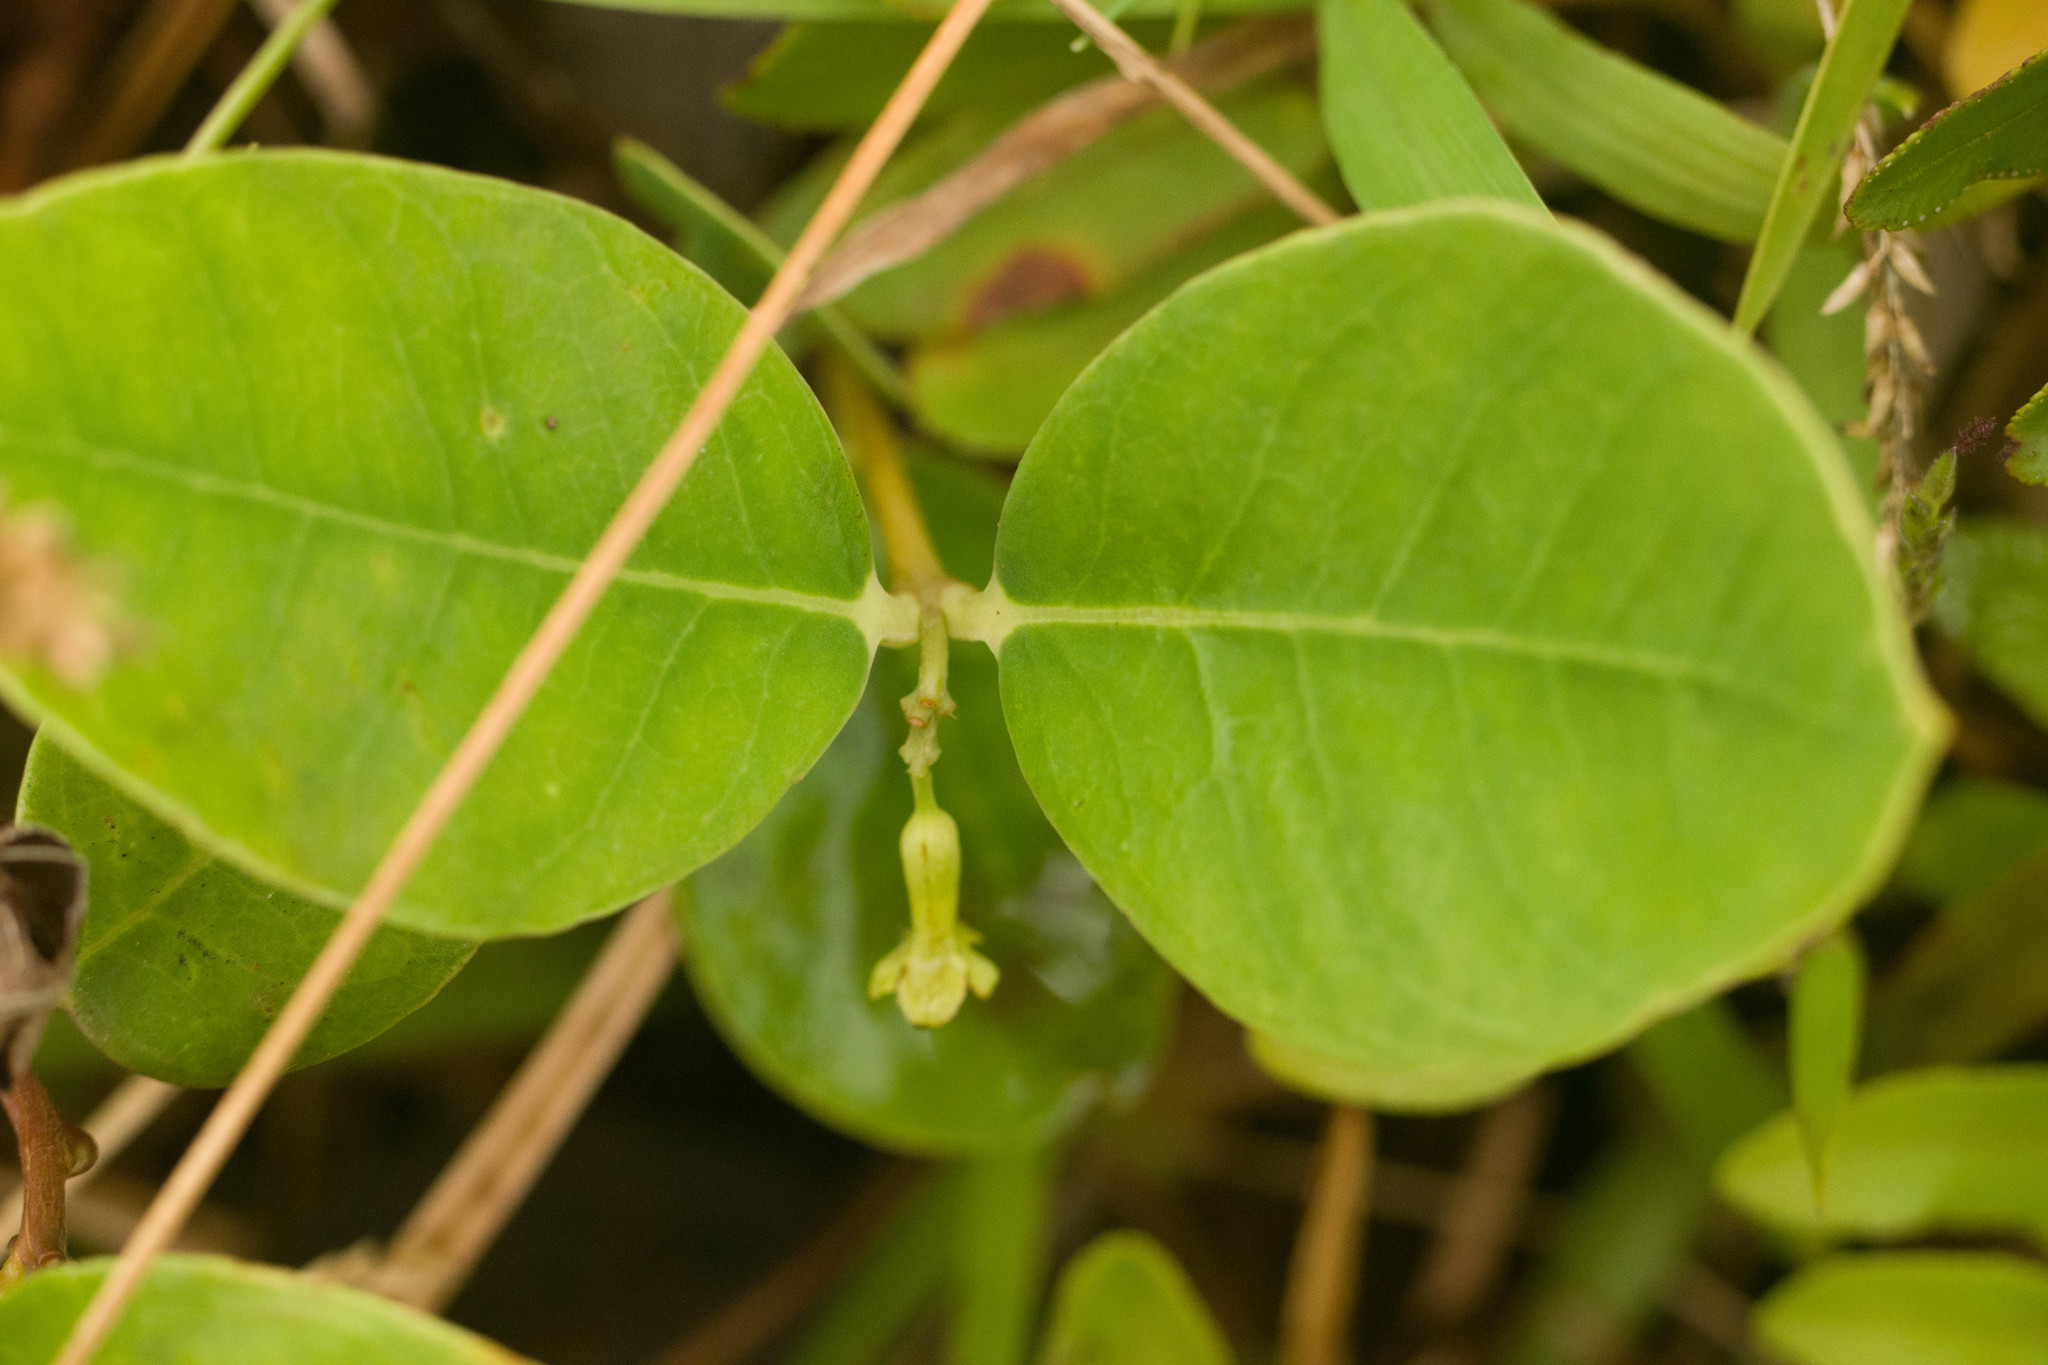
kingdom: Plantae
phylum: Tracheophyta
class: Magnoliopsida
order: Malvales
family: Thymelaeaceae
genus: Wikstroemia
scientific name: Wikstroemia oahuensis
